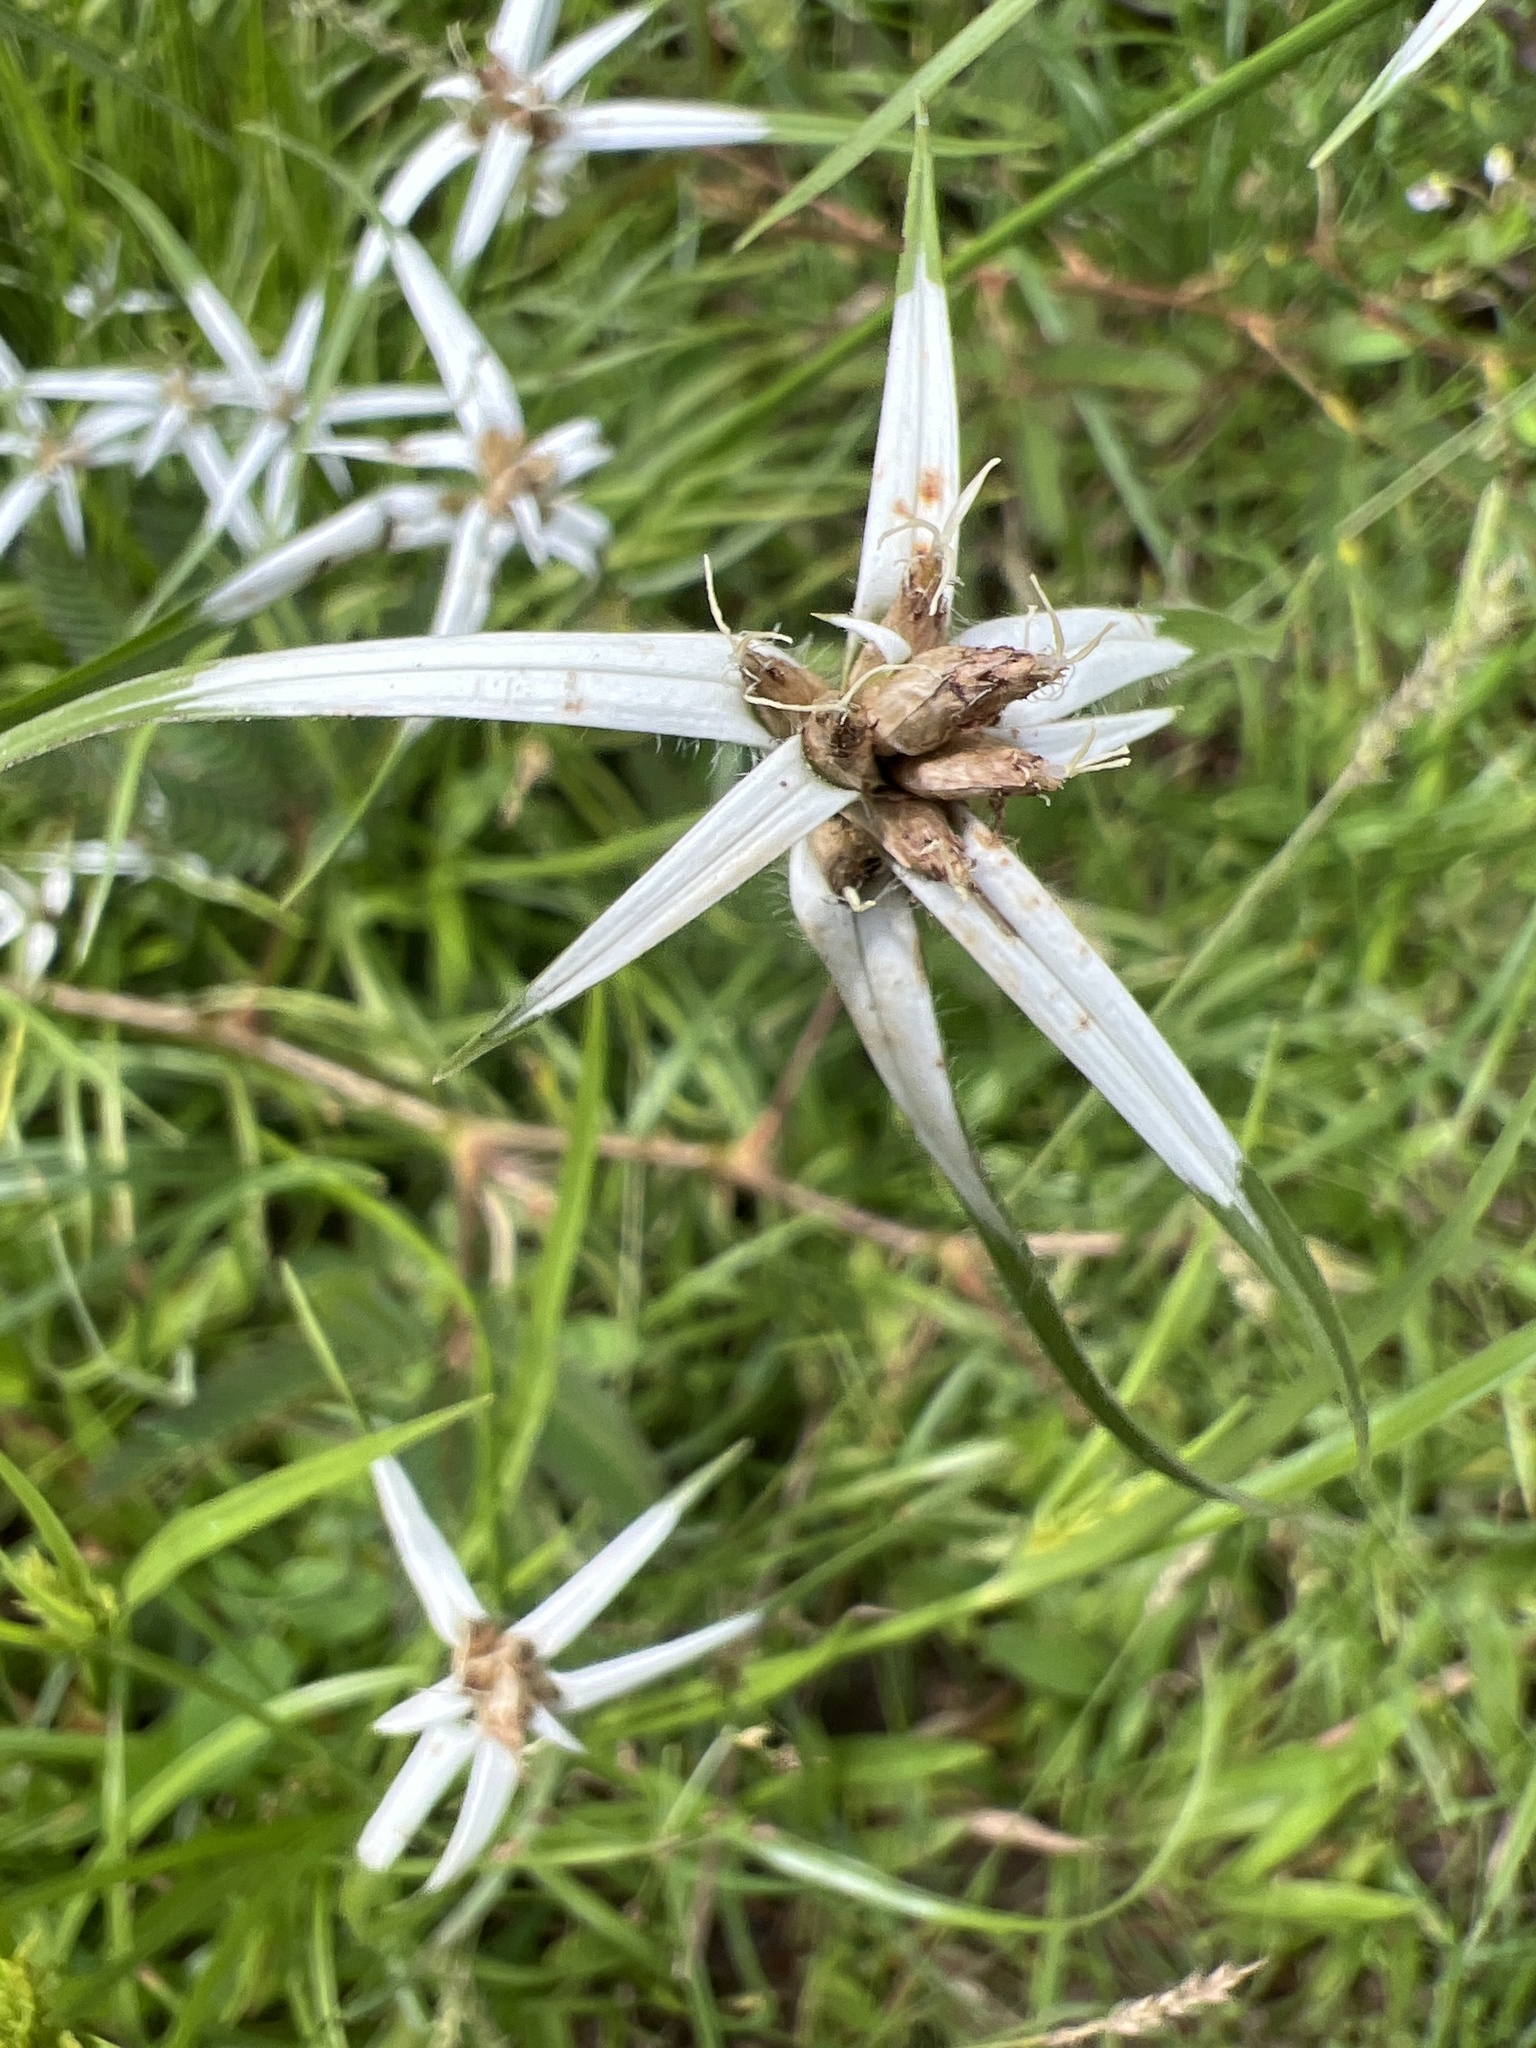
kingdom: Plantae
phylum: Tracheophyta
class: Liliopsida
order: Poales
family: Cyperaceae
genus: Rhynchospora
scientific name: Rhynchospora pura
